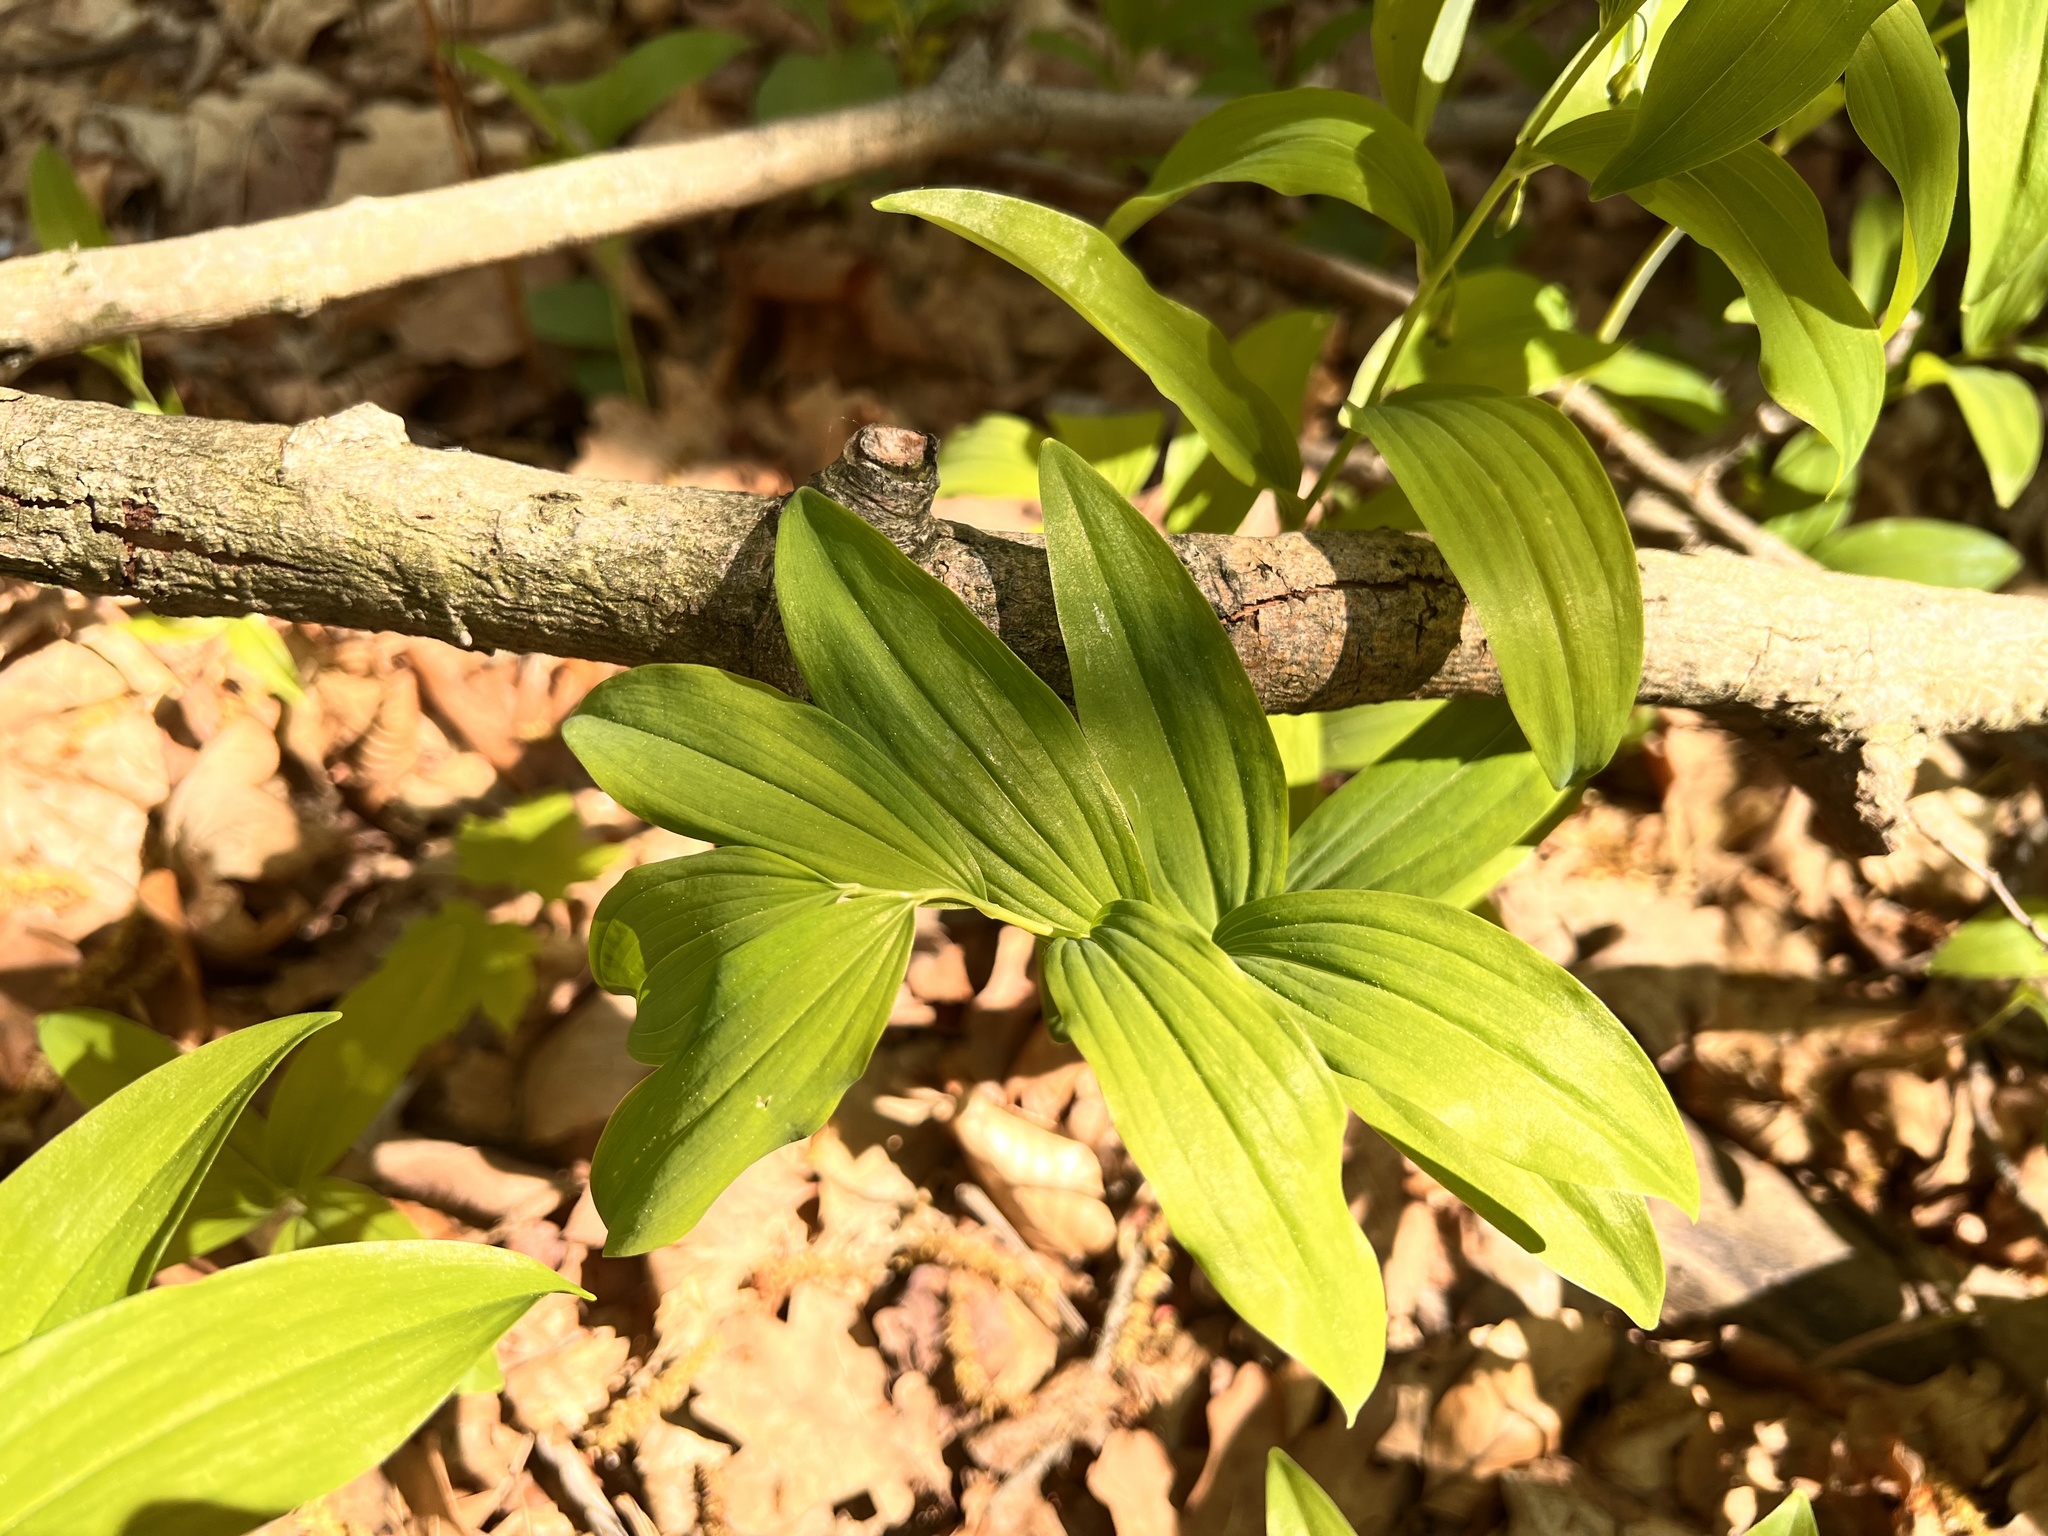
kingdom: Plantae
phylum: Tracheophyta
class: Liliopsida
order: Asparagales
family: Asparagaceae
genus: Polygonatum
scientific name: Polygonatum multiflorum
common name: Solomon's-seal
